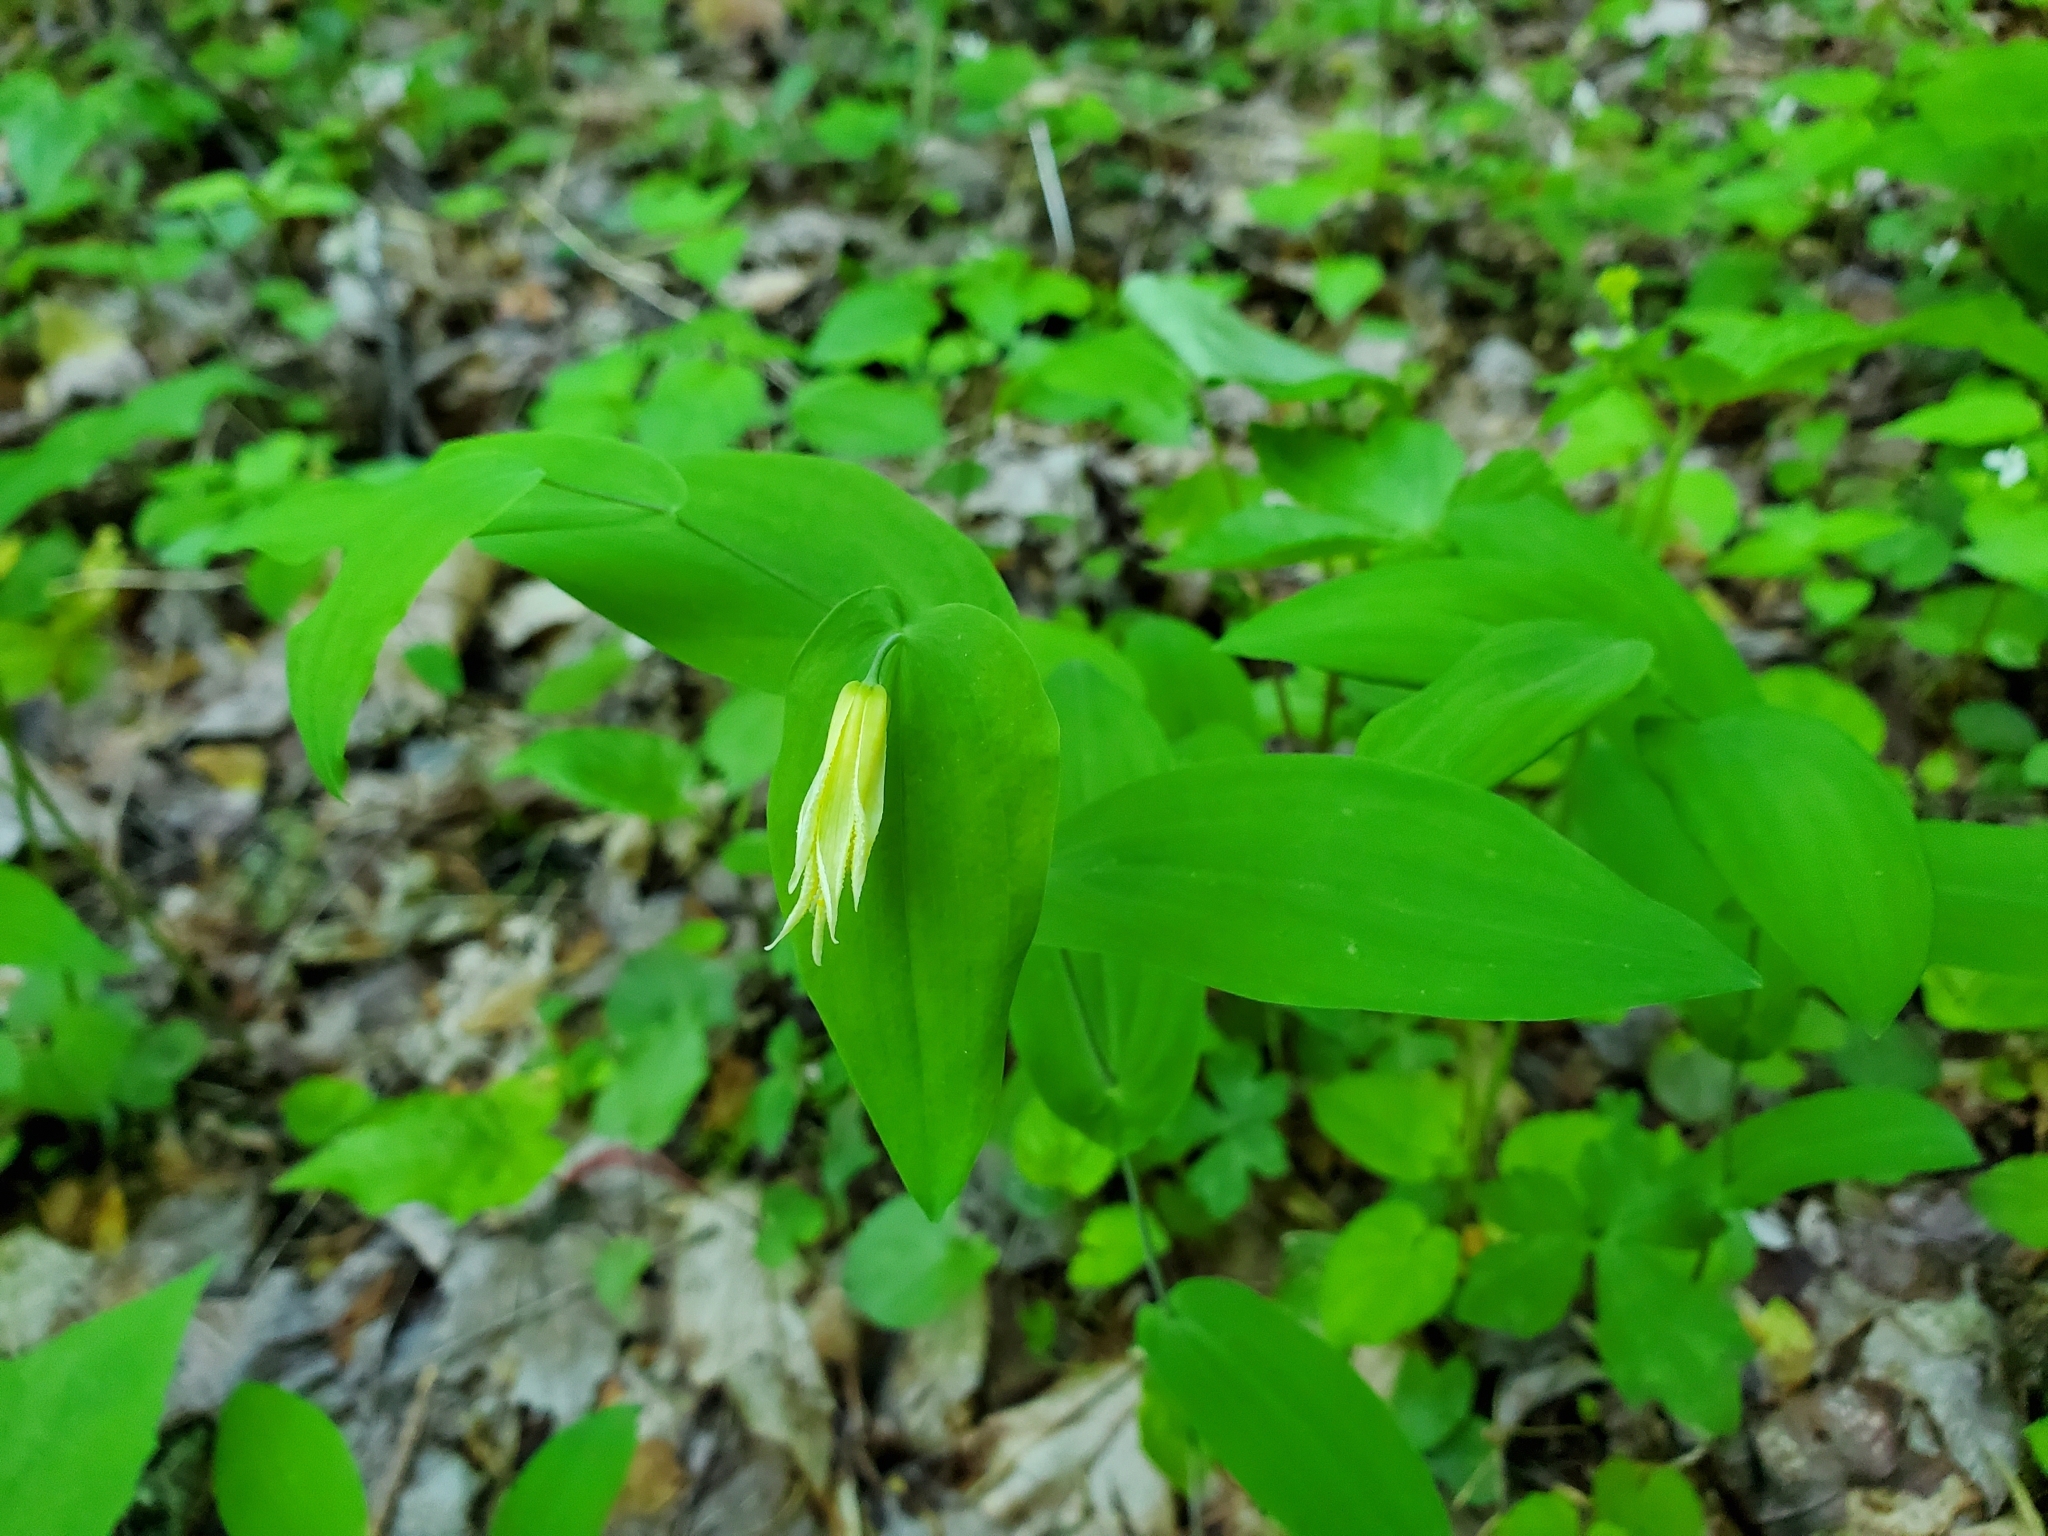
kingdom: Plantae
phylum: Tracheophyta
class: Liliopsida
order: Liliales
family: Colchicaceae
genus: Uvularia
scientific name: Uvularia perfoliata
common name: Perfoliate bellwort
